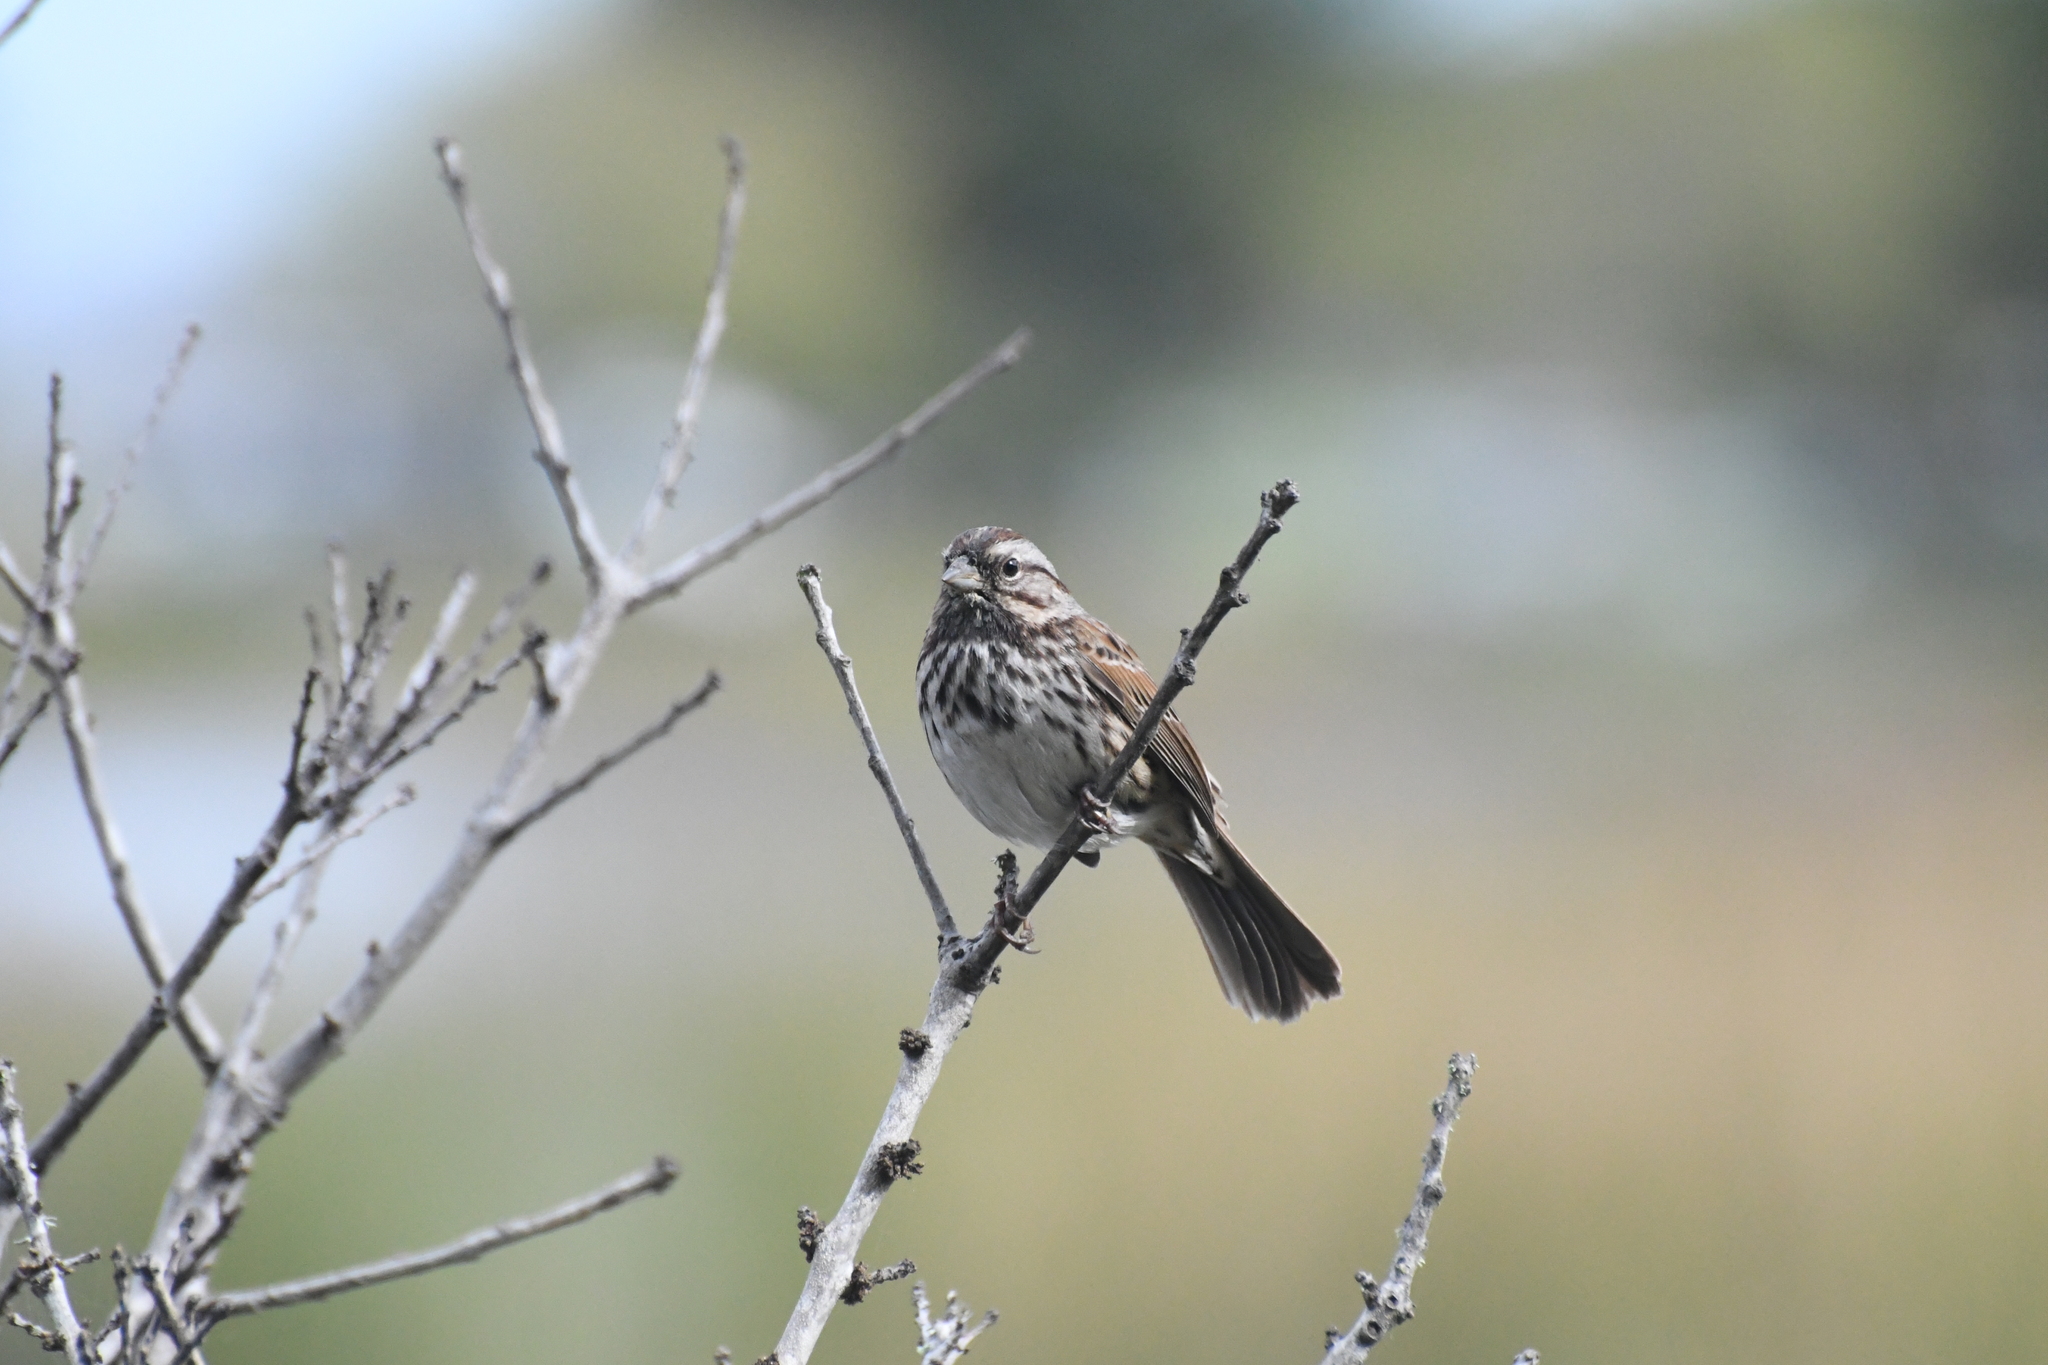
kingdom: Animalia
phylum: Chordata
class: Aves
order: Passeriformes
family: Passerellidae
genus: Melospiza
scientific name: Melospiza melodia
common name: Song sparrow
